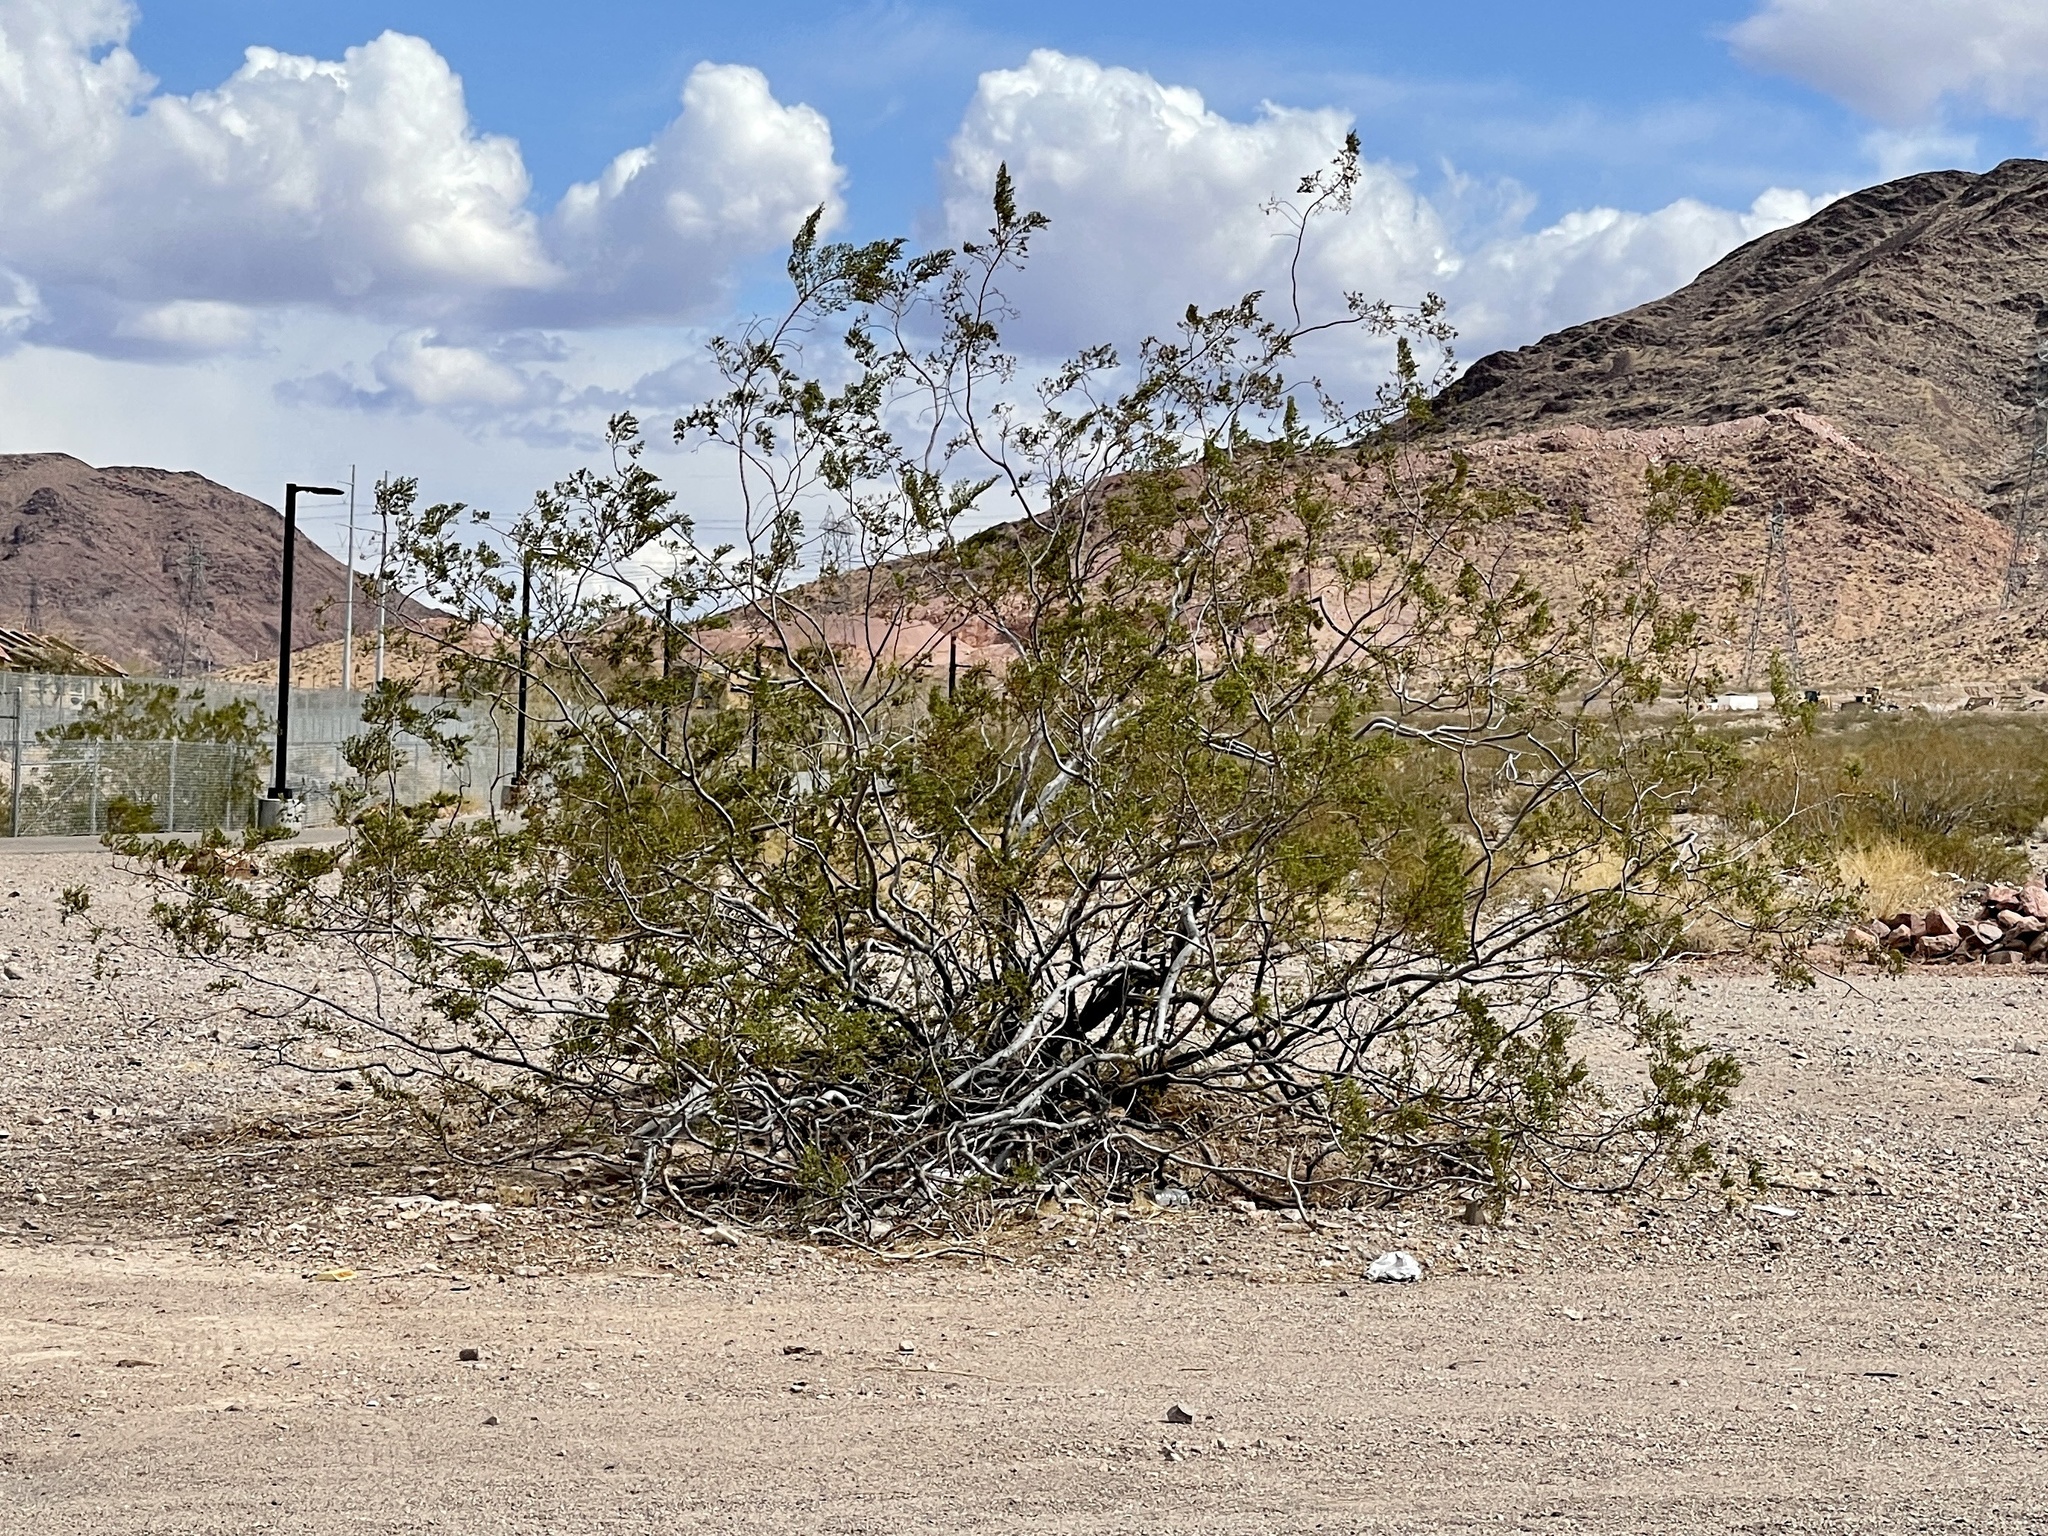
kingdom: Plantae
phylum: Tracheophyta
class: Magnoliopsida
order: Zygophyllales
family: Zygophyllaceae
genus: Larrea
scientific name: Larrea tridentata
